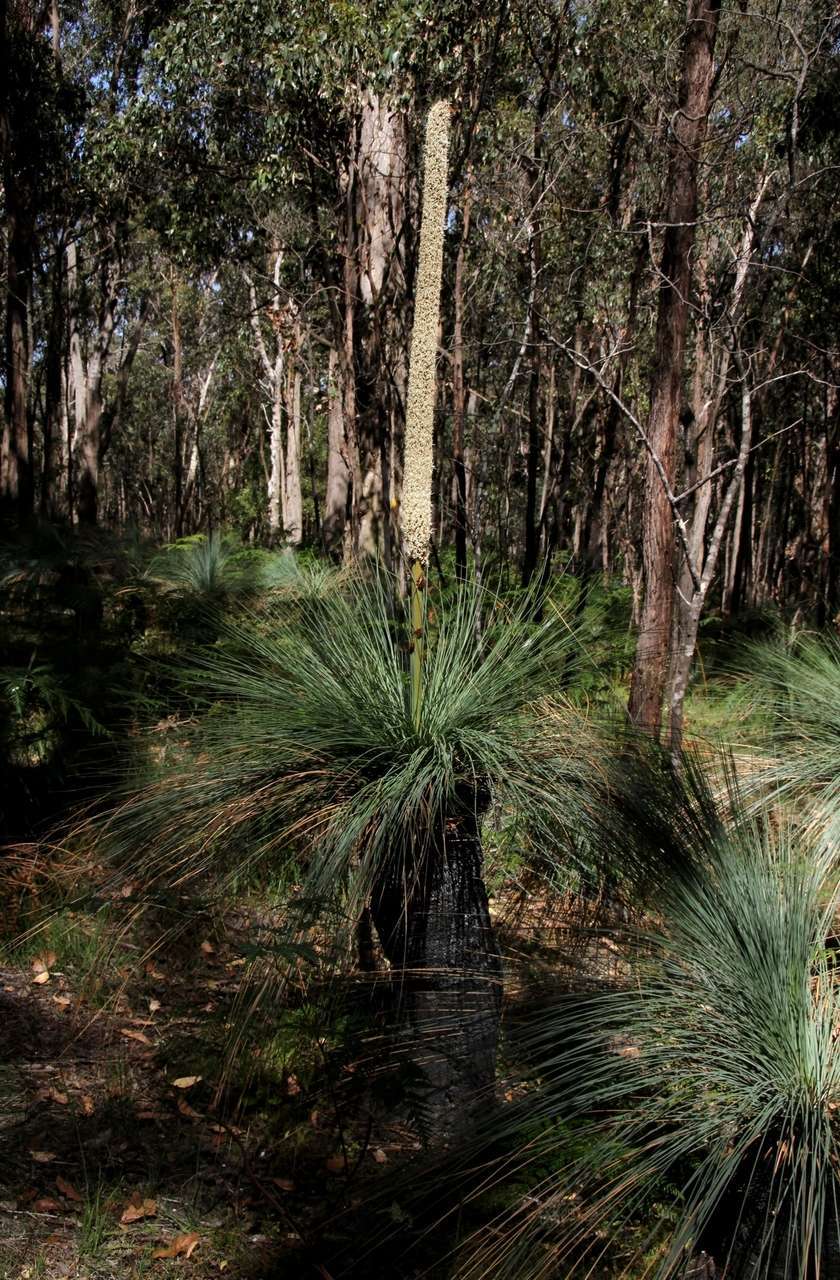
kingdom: Plantae
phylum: Tracheophyta
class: Liliopsida
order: Asparagales
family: Asphodelaceae
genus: Xanthorrhoea
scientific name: Xanthorrhoea australis
